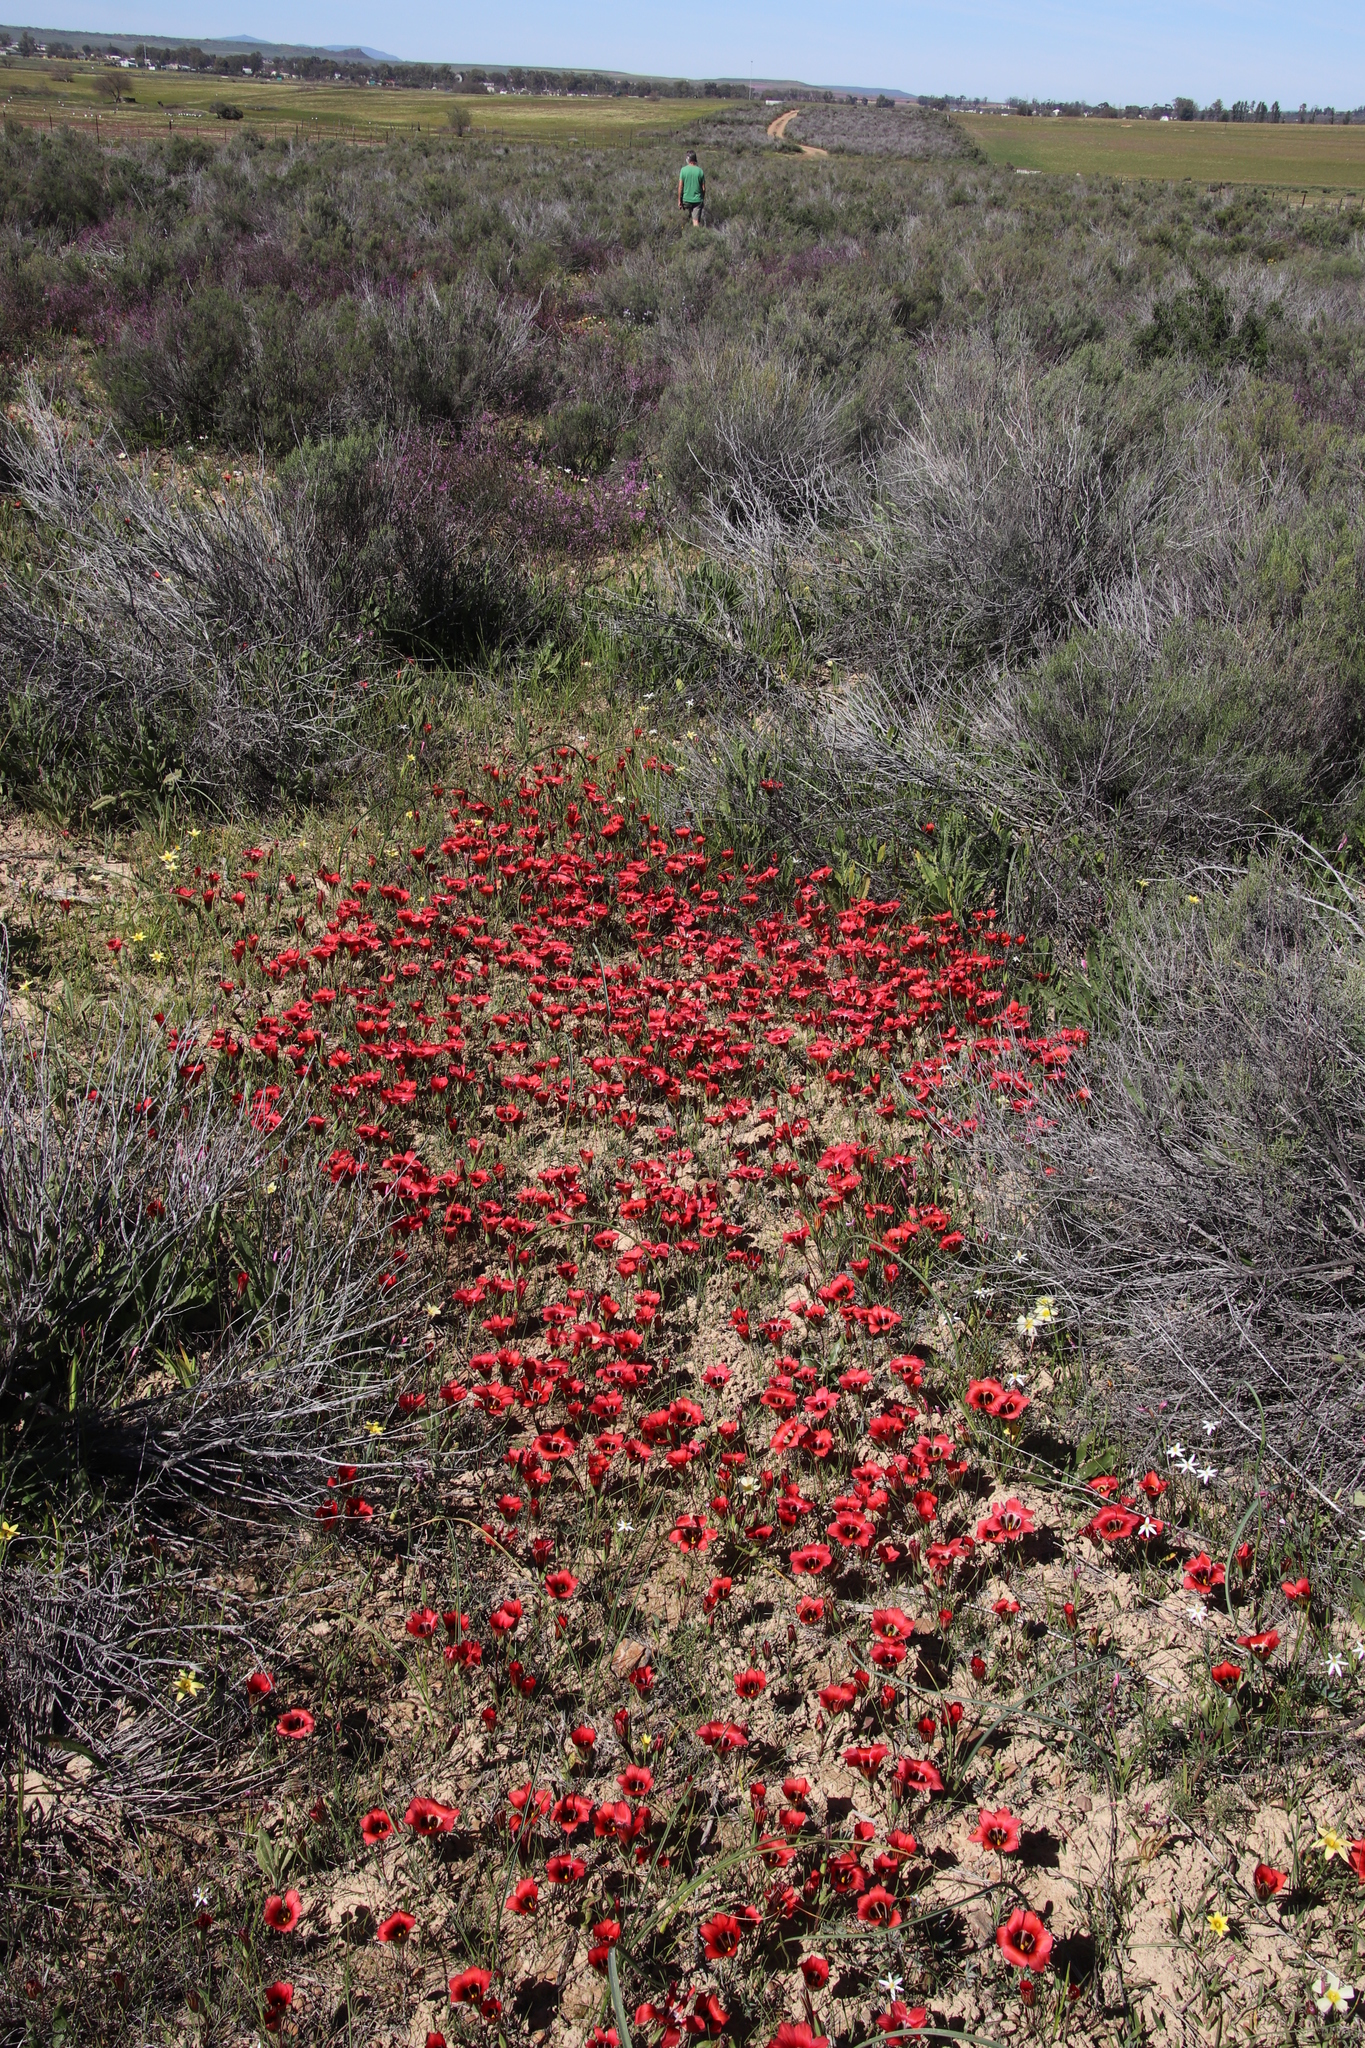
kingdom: Plantae
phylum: Tracheophyta
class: Liliopsida
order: Asparagales
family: Iridaceae
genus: Romulea
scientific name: Romulea sabulosa
